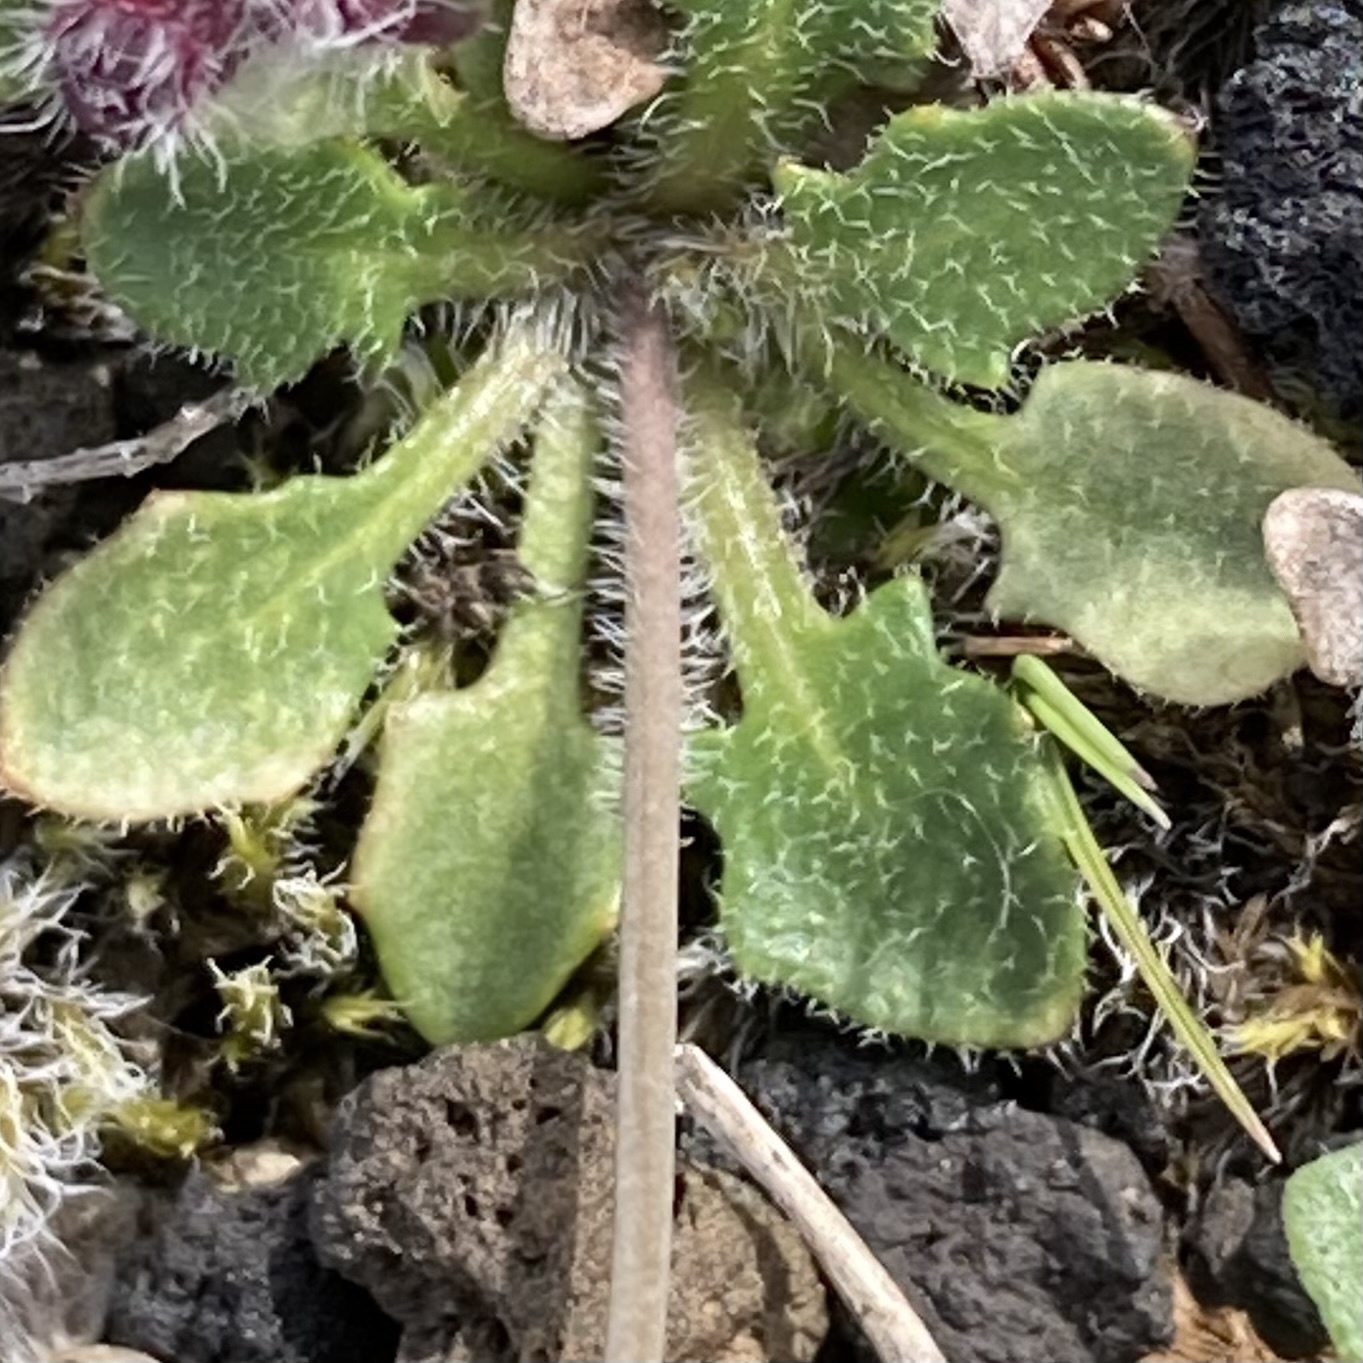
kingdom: Plantae
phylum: Tracheophyta
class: Magnoliopsida
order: Brassicales
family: Brassicaceae
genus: Arabidopsis
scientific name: Arabidopsis lyrata
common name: Lyrate rockcress
